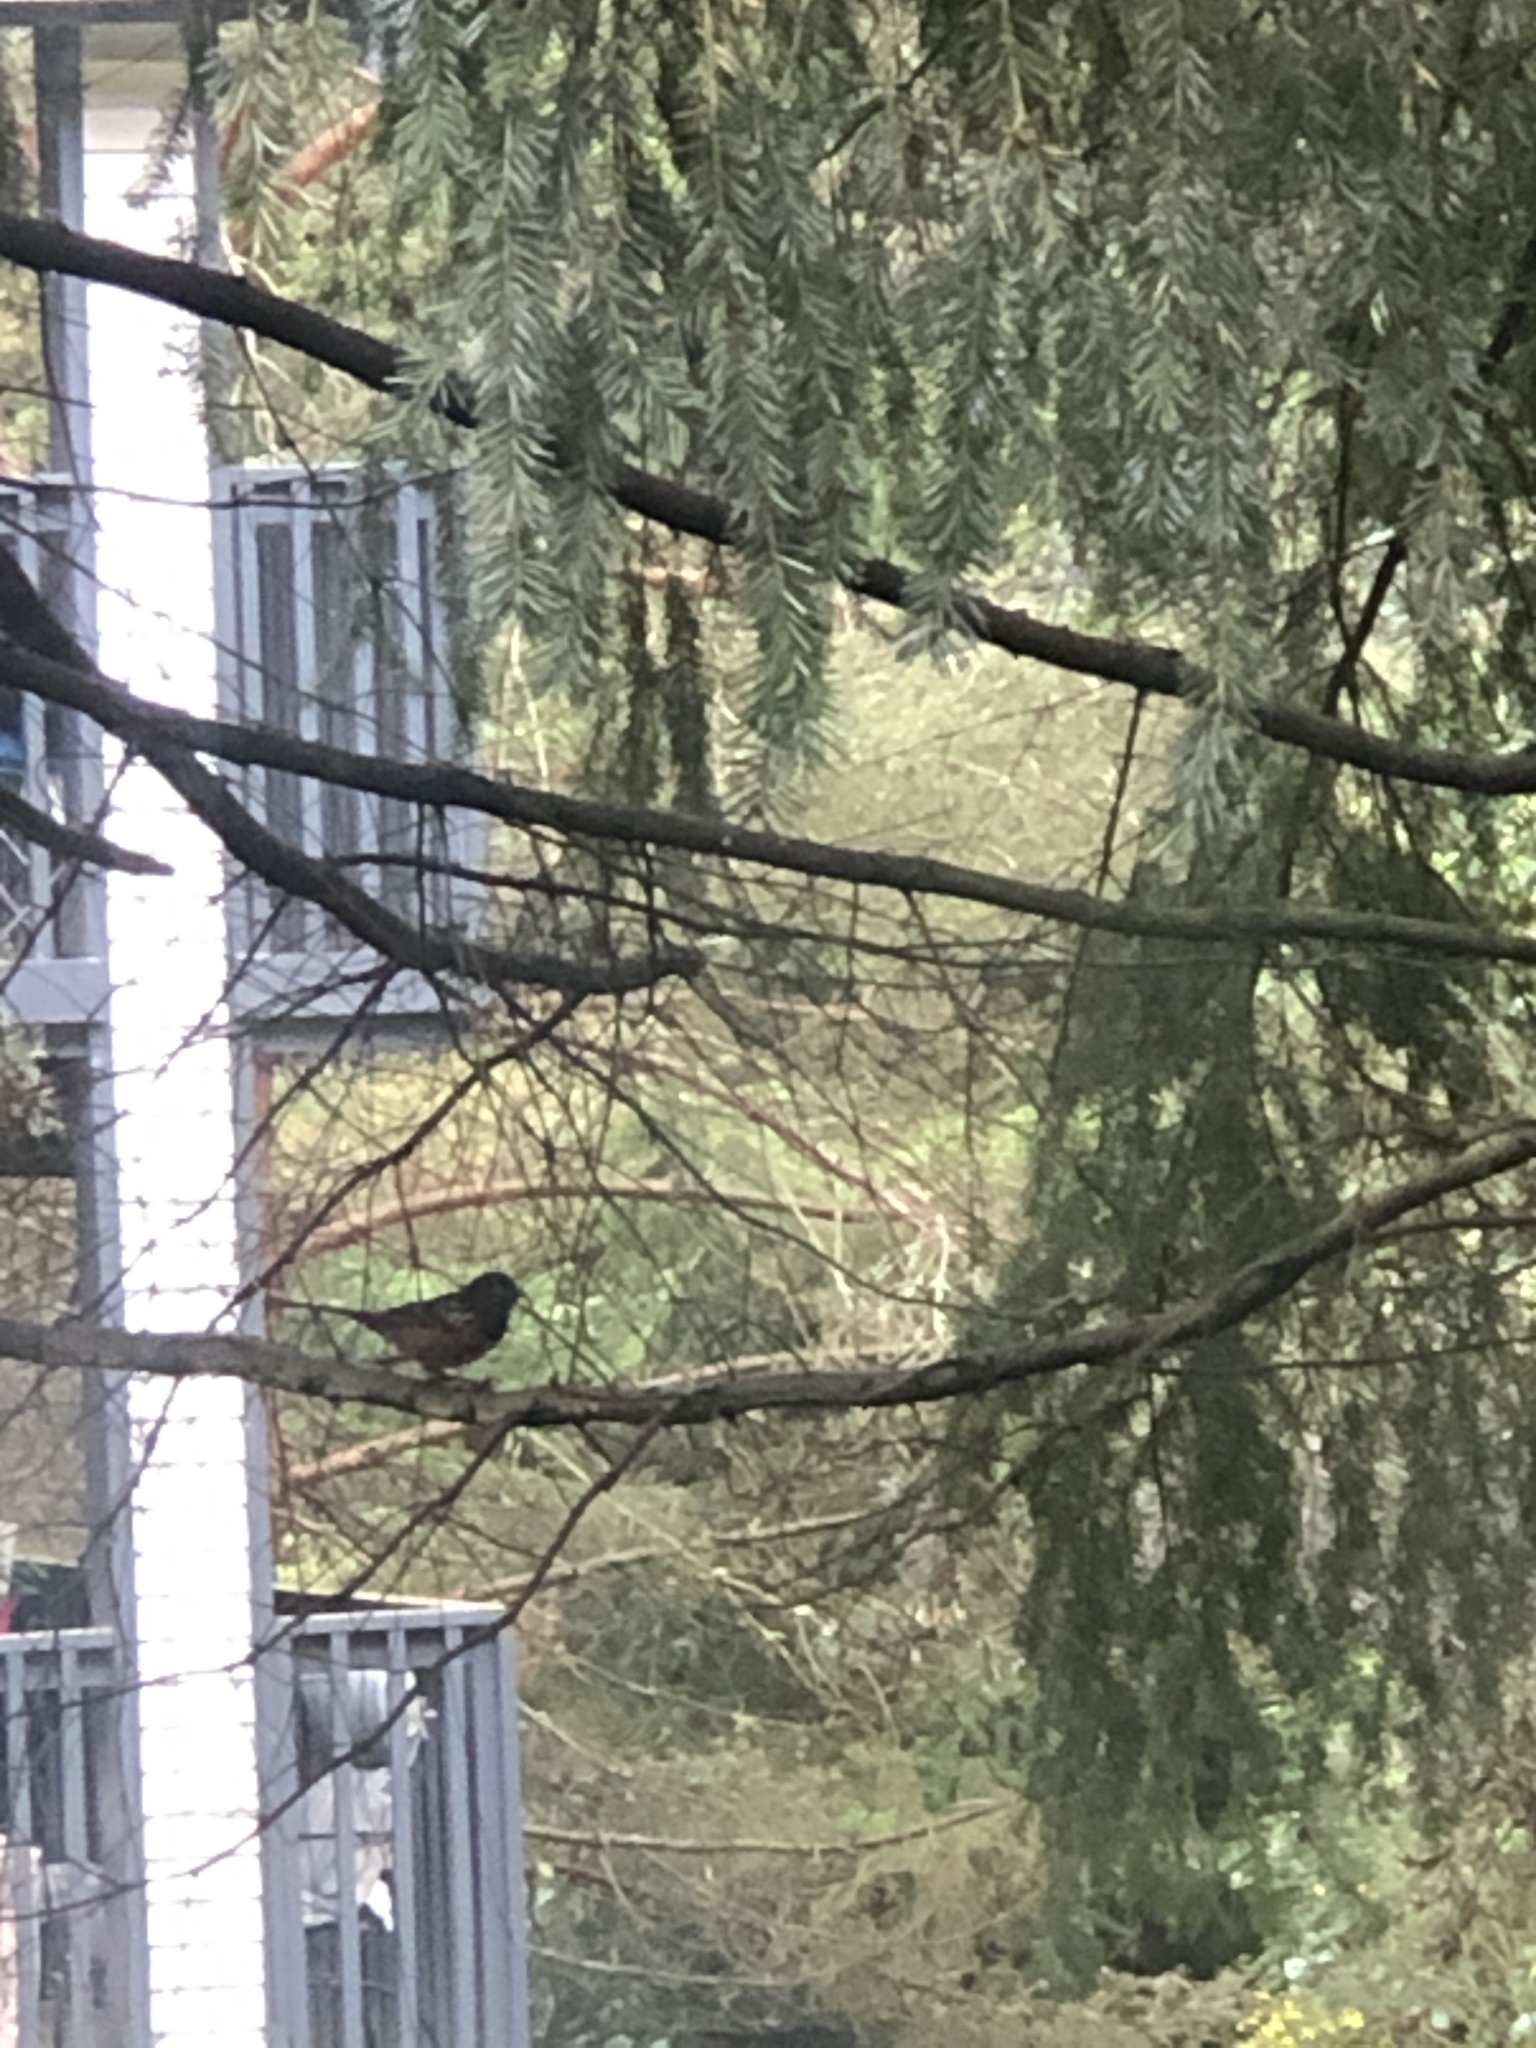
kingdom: Animalia
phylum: Chordata
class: Aves
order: Passeriformes
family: Passerellidae
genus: Pipilo
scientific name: Pipilo maculatus
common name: Spotted towhee
